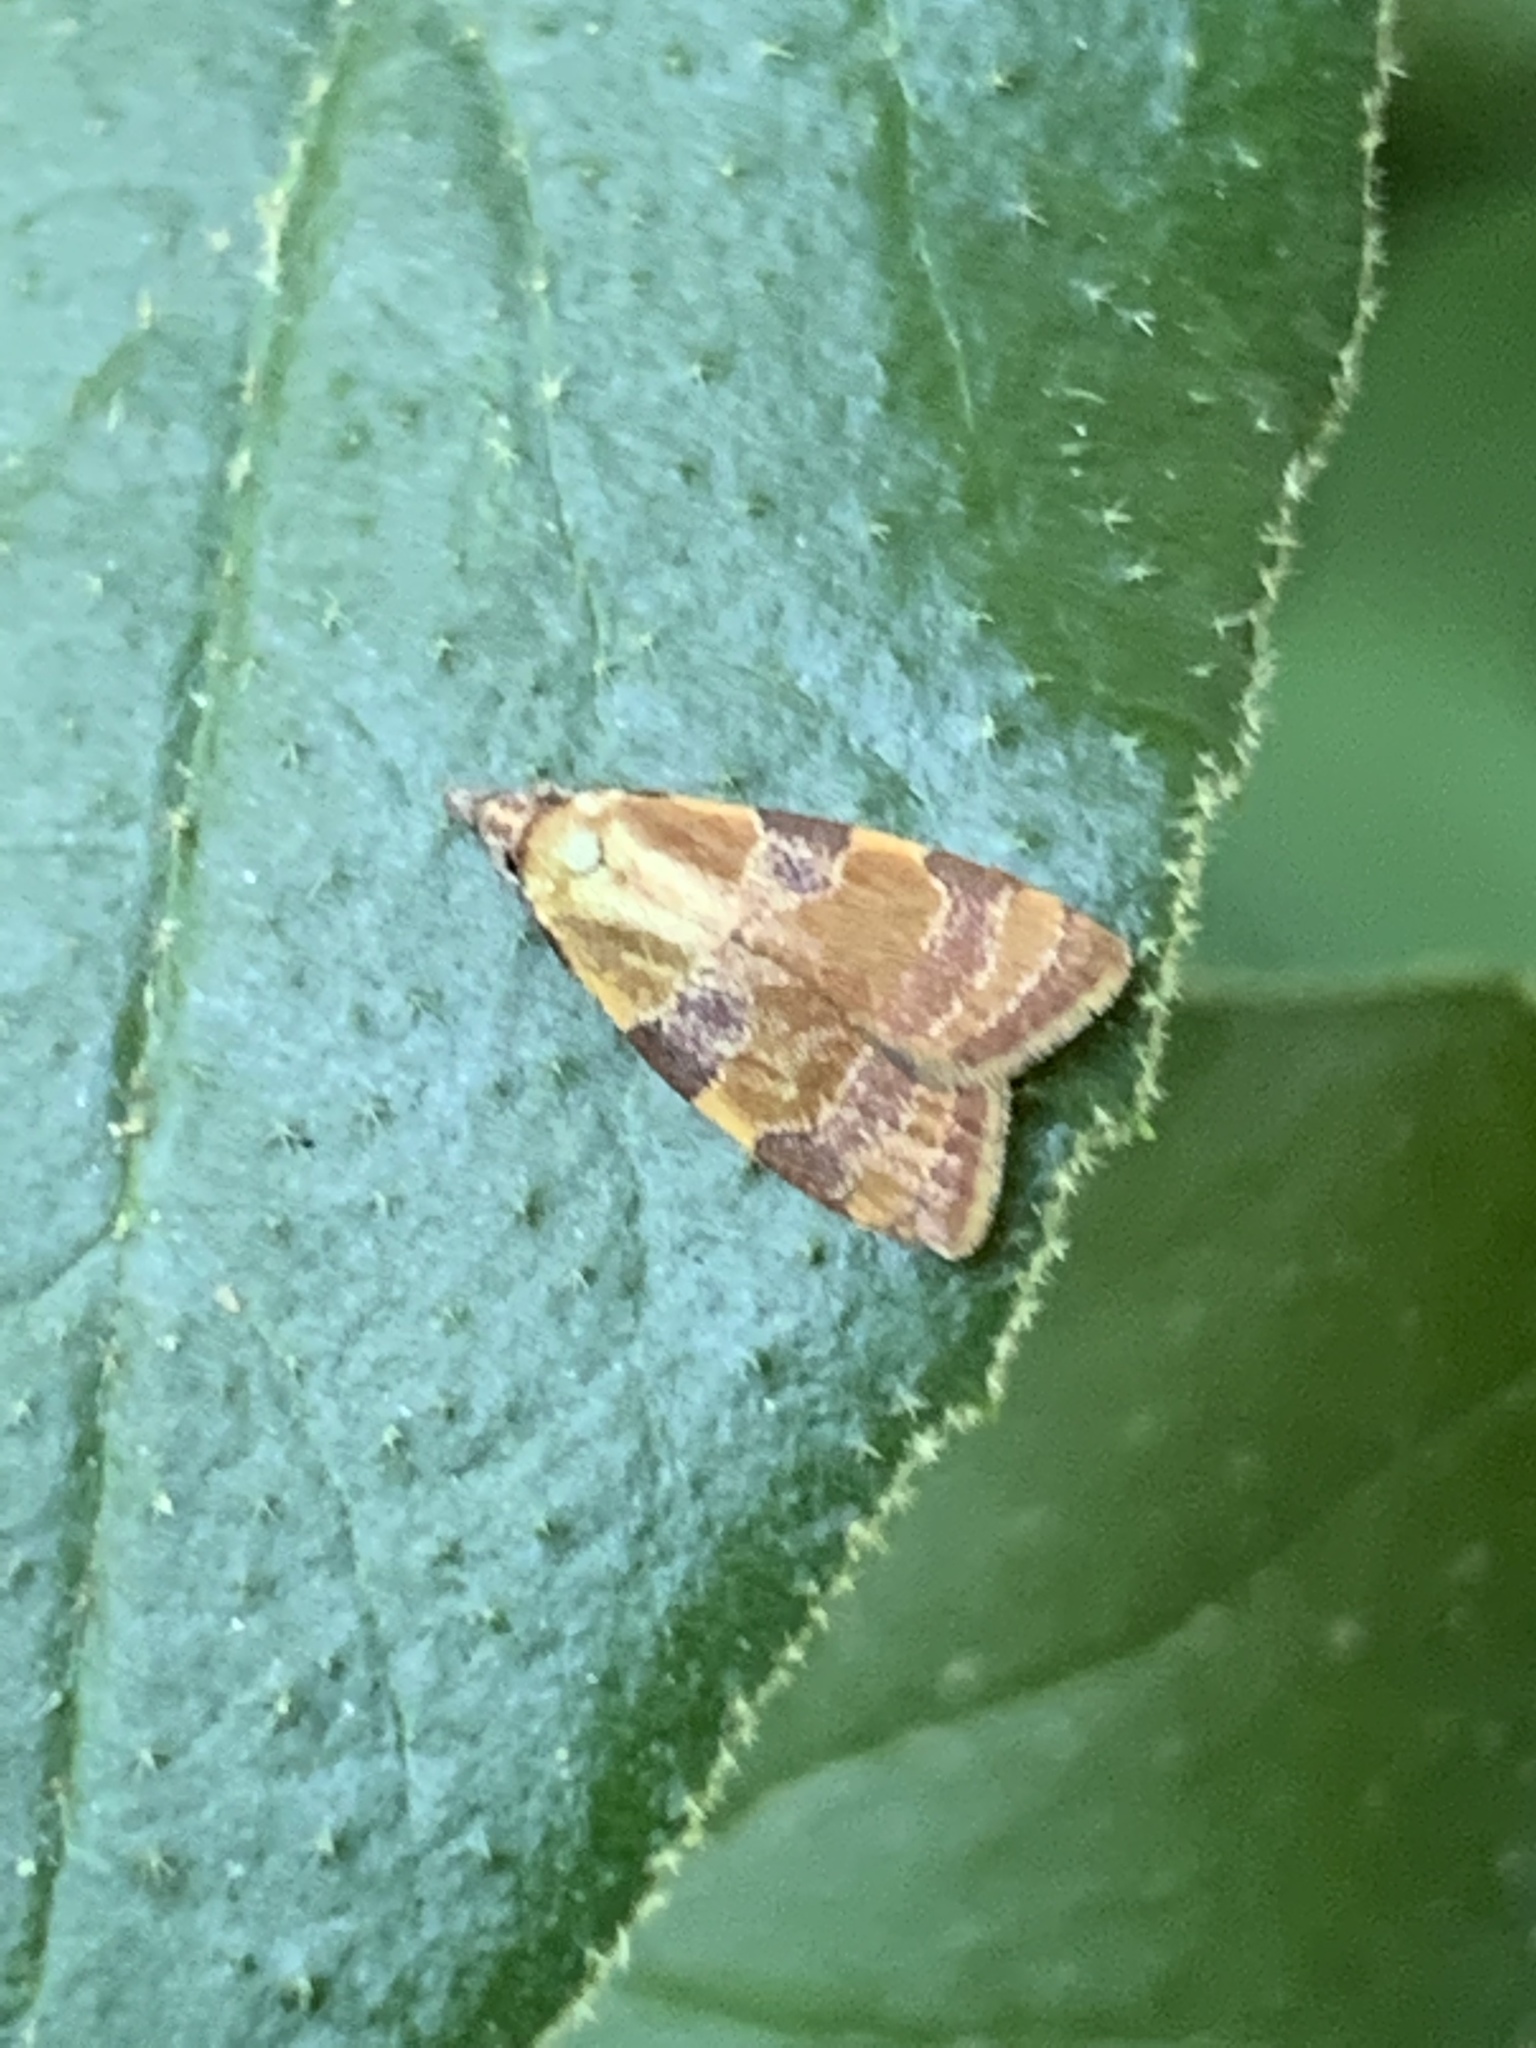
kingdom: Animalia
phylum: Arthropoda
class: Insecta
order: Lepidoptera
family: Tortricidae
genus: Cenopis
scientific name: Cenopis diluticostana
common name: Spring dead-leaf roller moth
